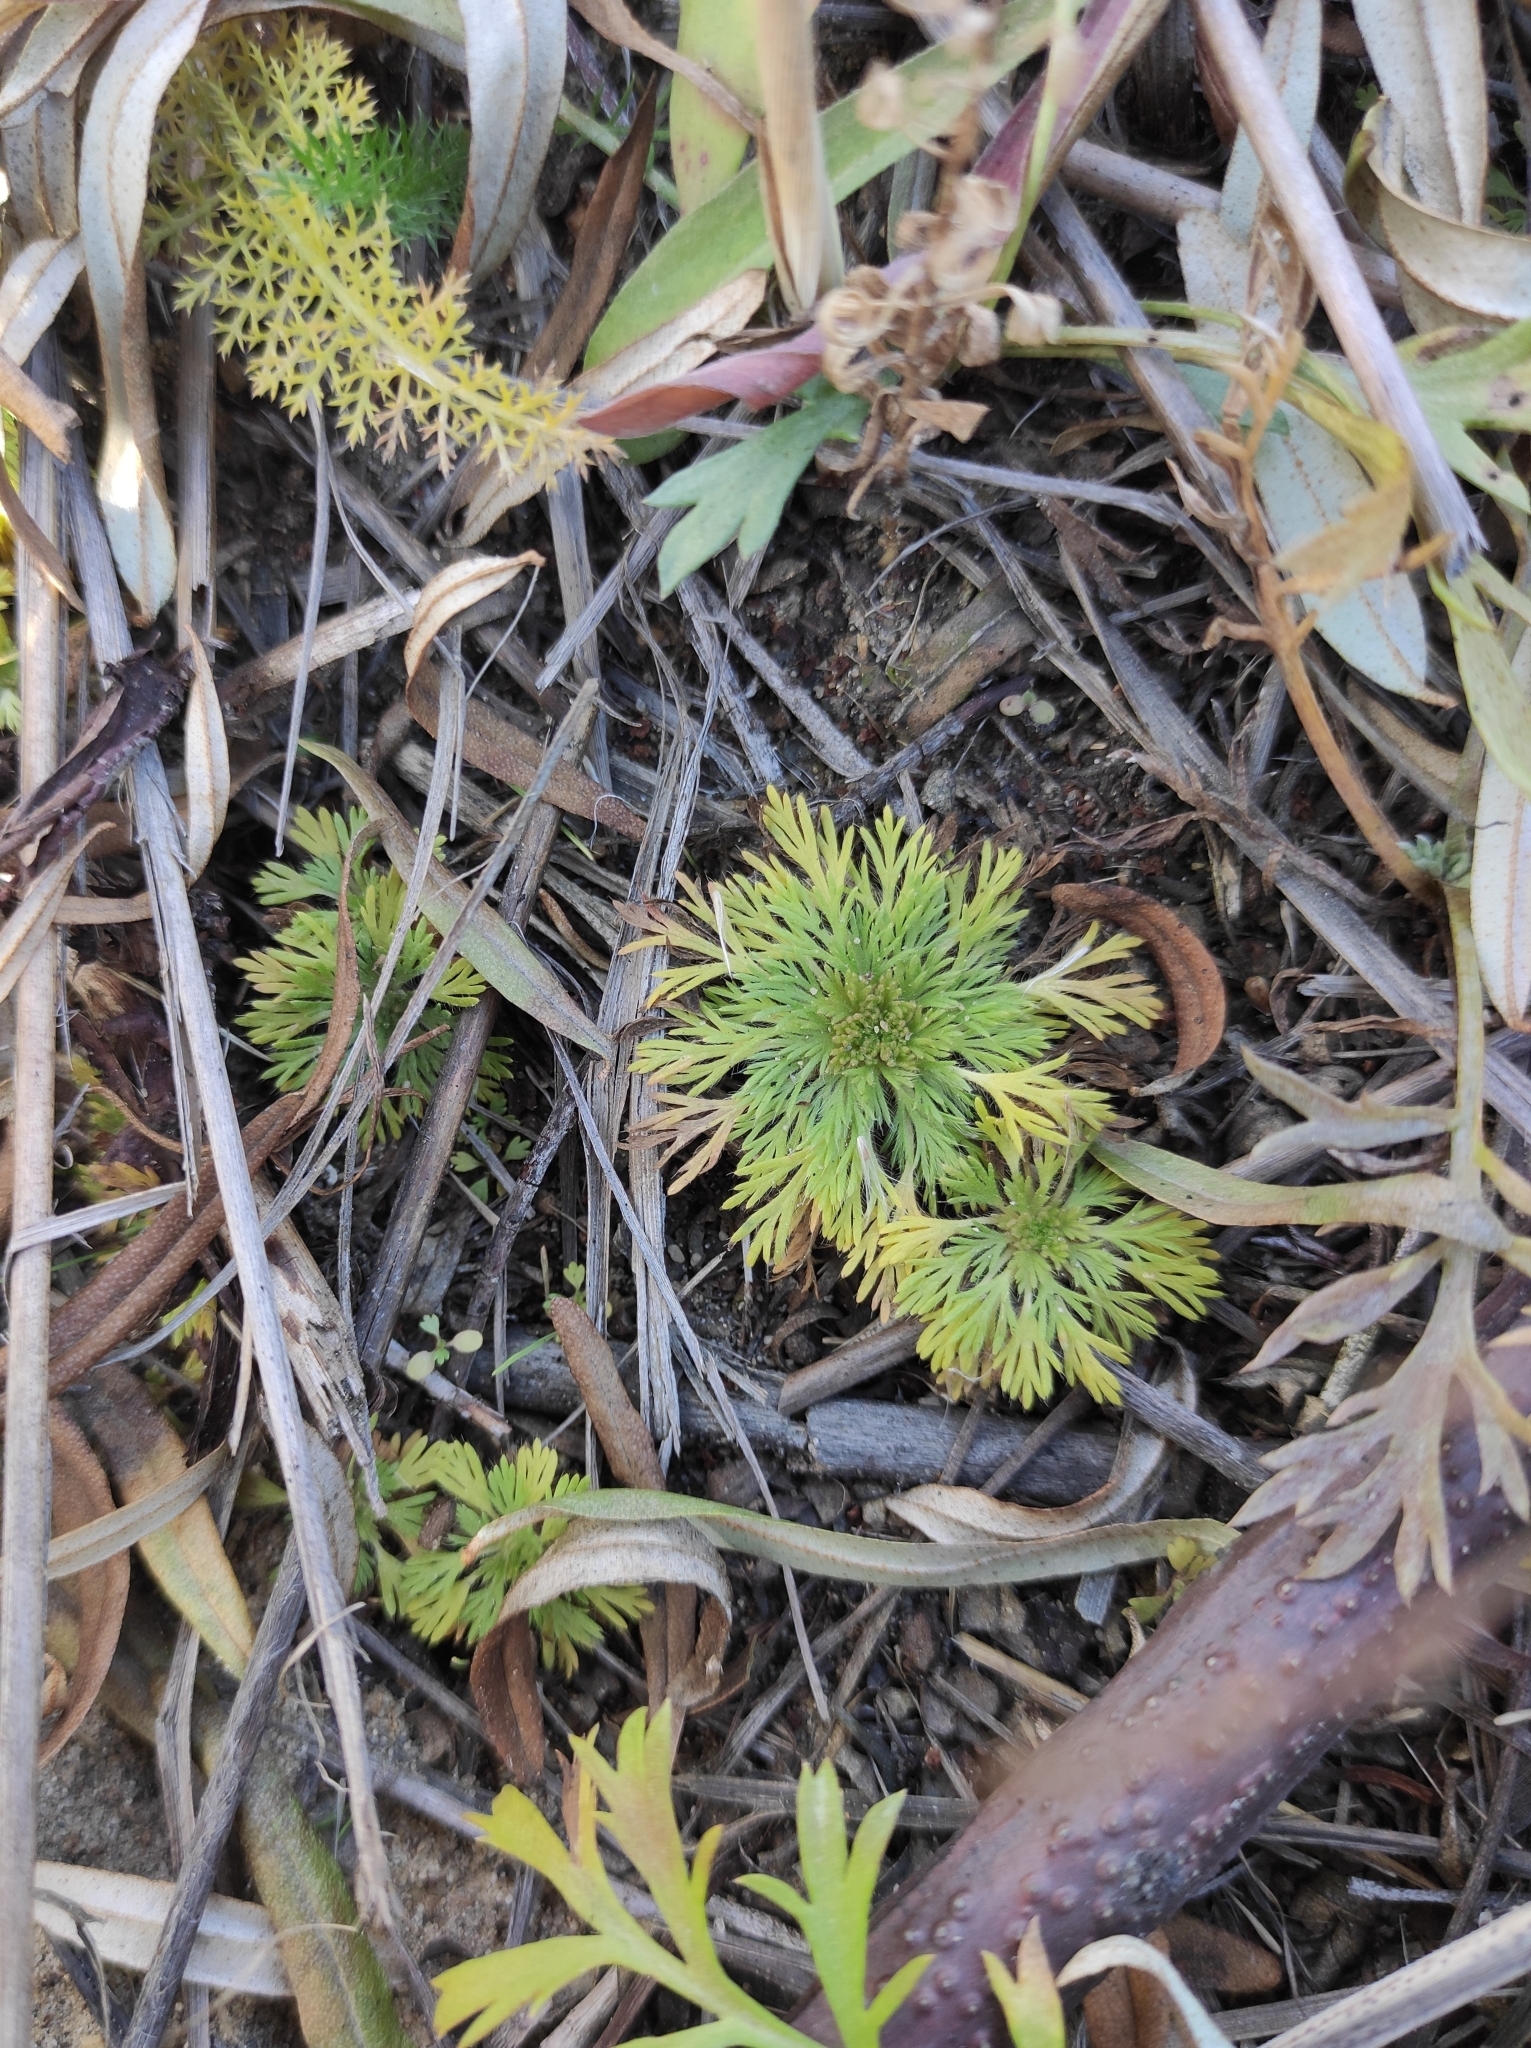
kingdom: Plantae
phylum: Tracheophyta
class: Magnoliopsida
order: Rosales
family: Rosaceae
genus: Chamaerhodos
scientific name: Chamaerhodos erecta
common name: American chamaerhodos
